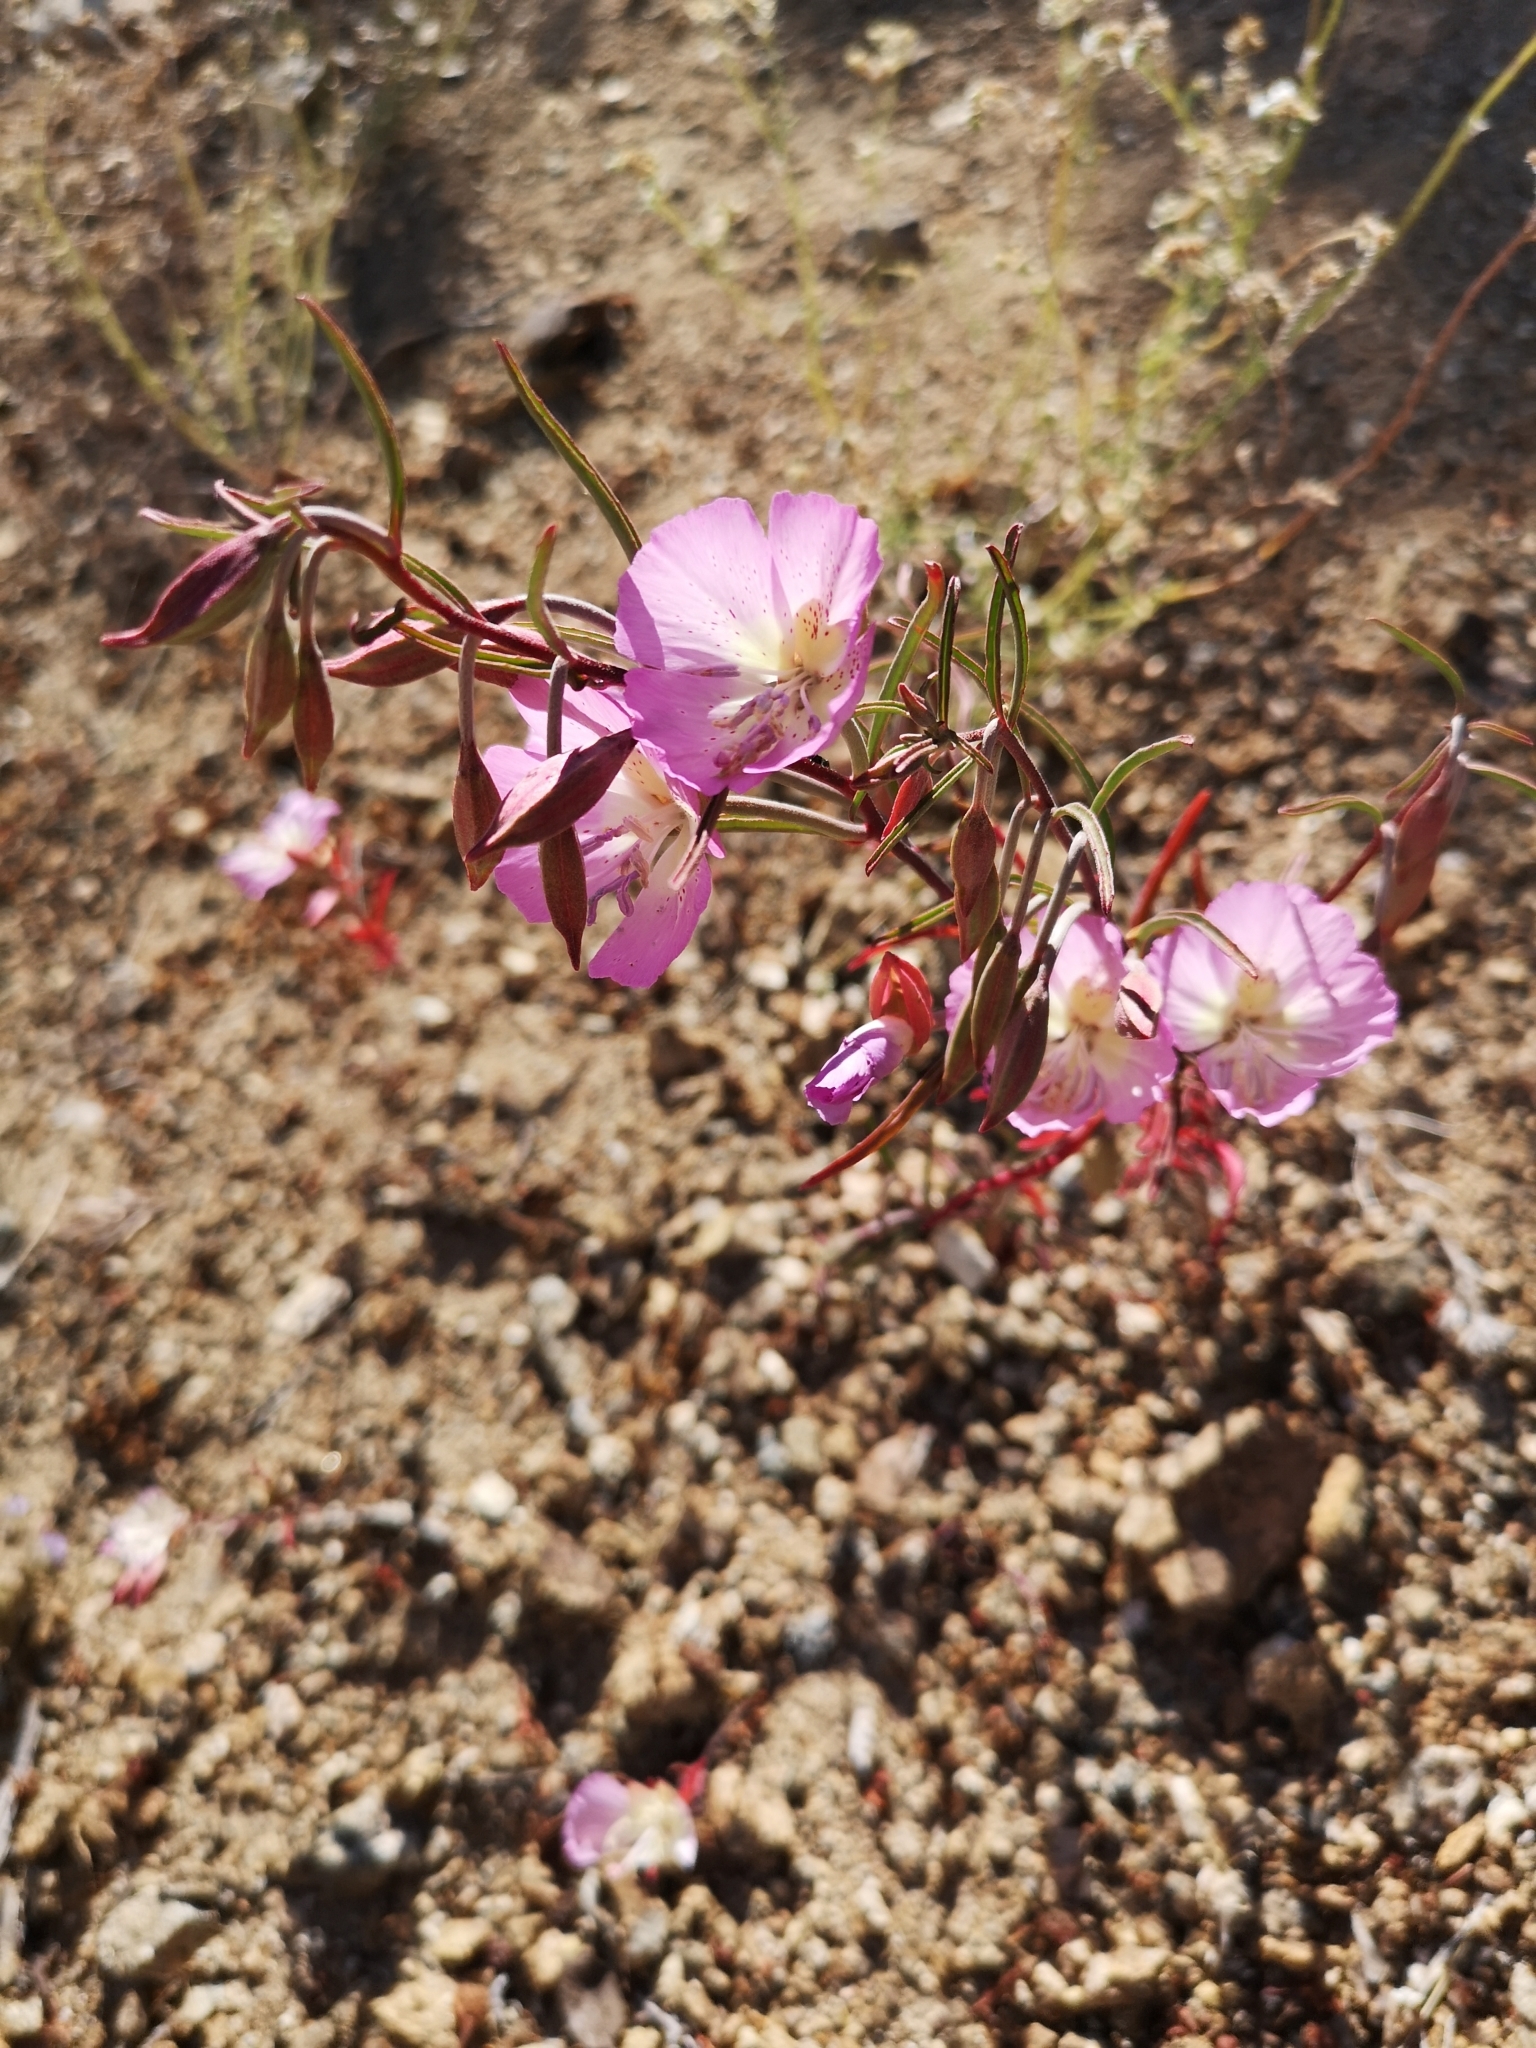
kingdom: Plantae
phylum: Tracheophyta
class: Magnoliopsida
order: Myrtales
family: Onagraceae
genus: Clarkia
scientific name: Clarkia bottae
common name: Punch-bowl godetia
